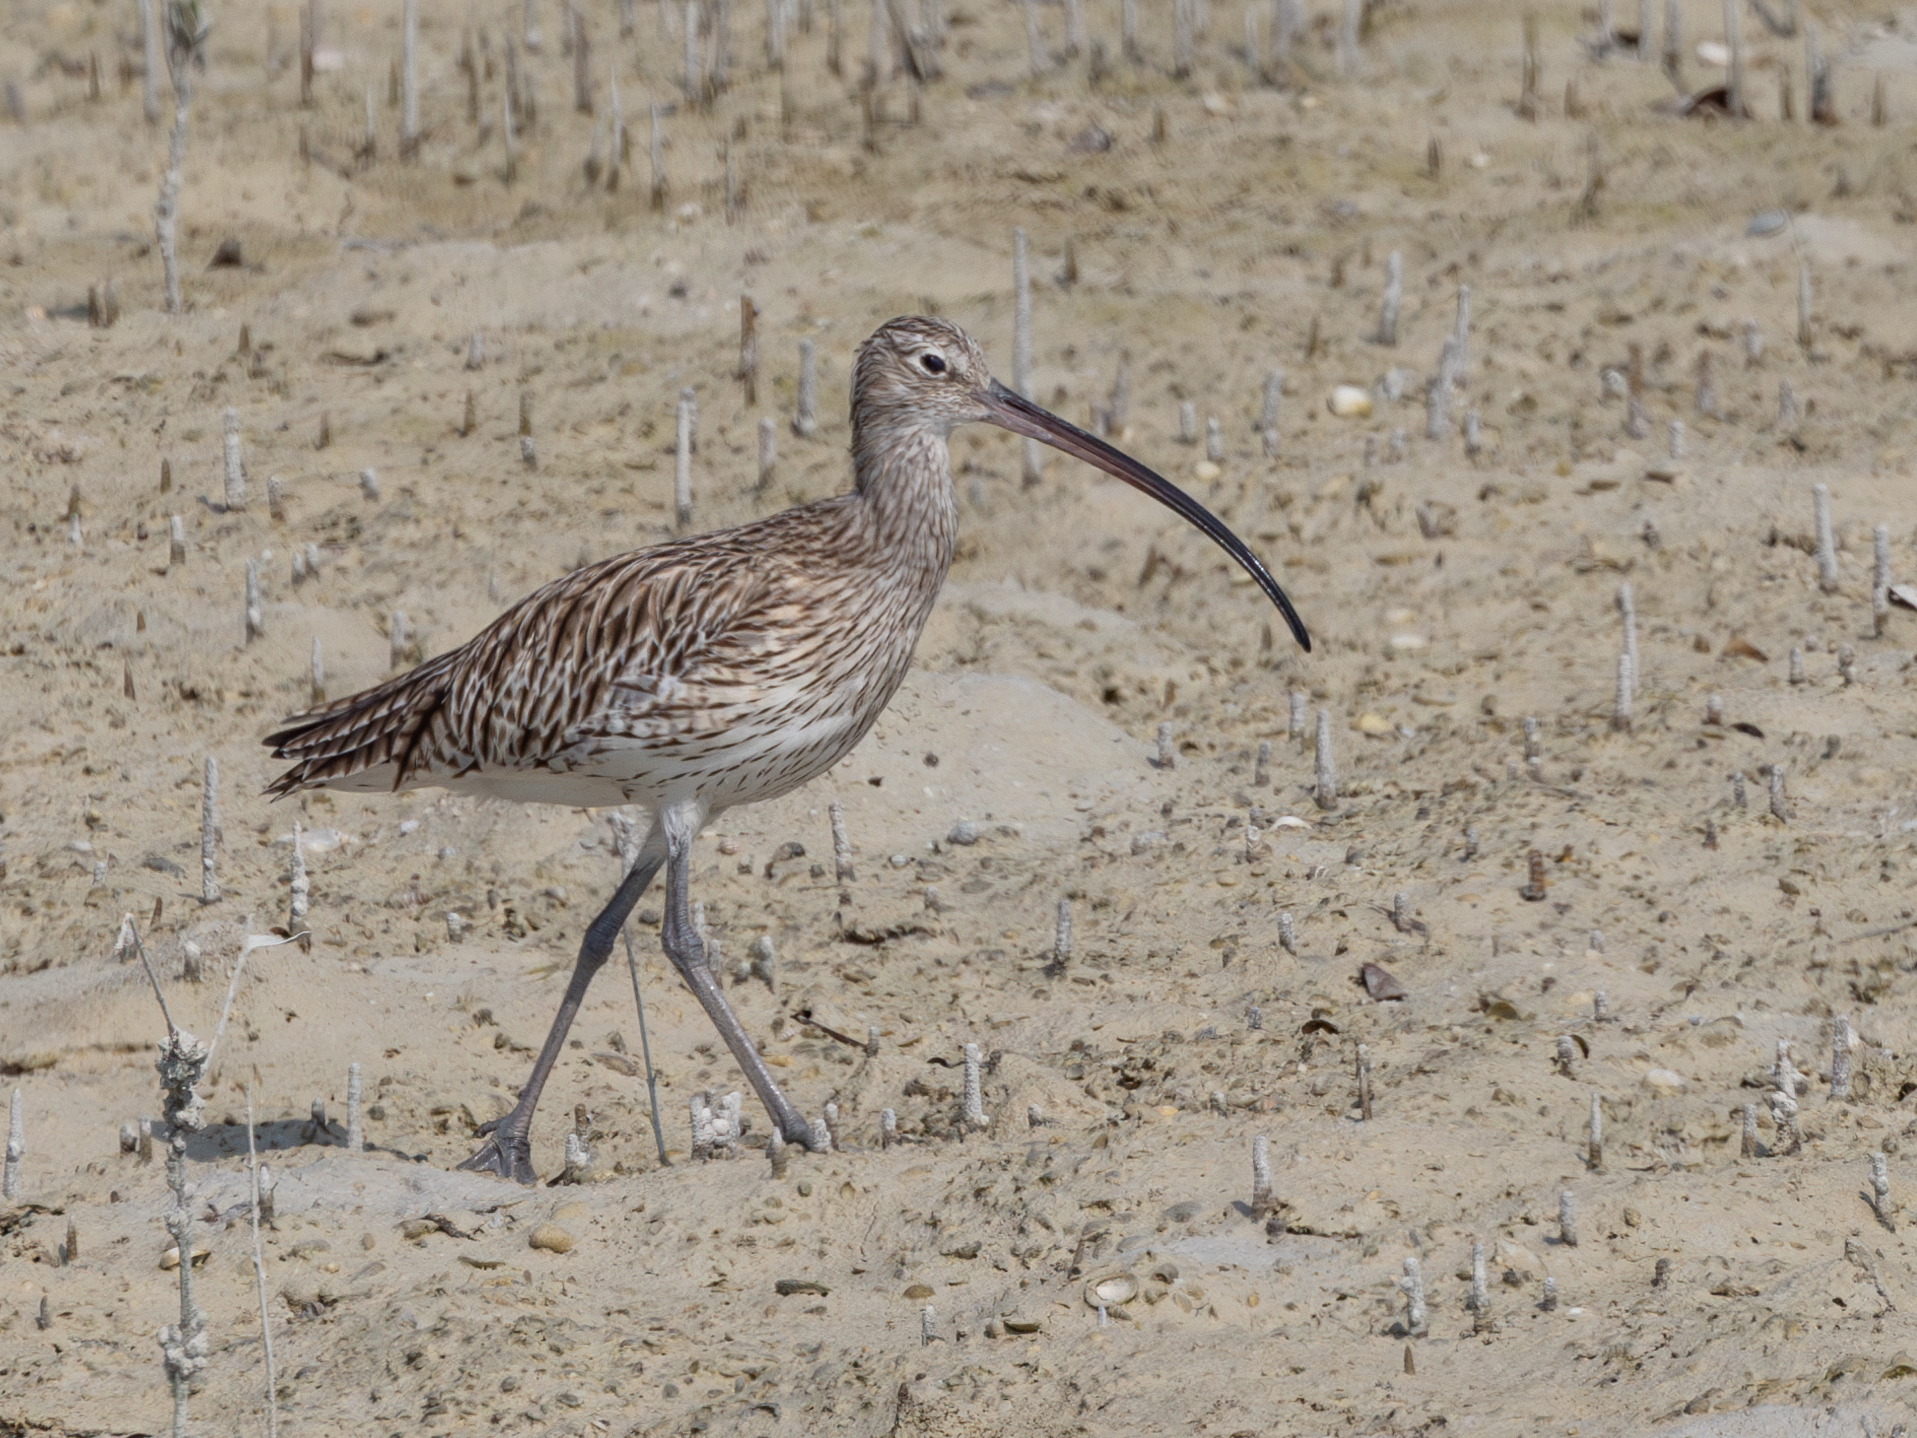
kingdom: Animalia
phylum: Chordata
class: Aves
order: Charadriiformes
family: Scolopacidae
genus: Numenius
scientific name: Numenius arquata
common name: Eurasian curlew
